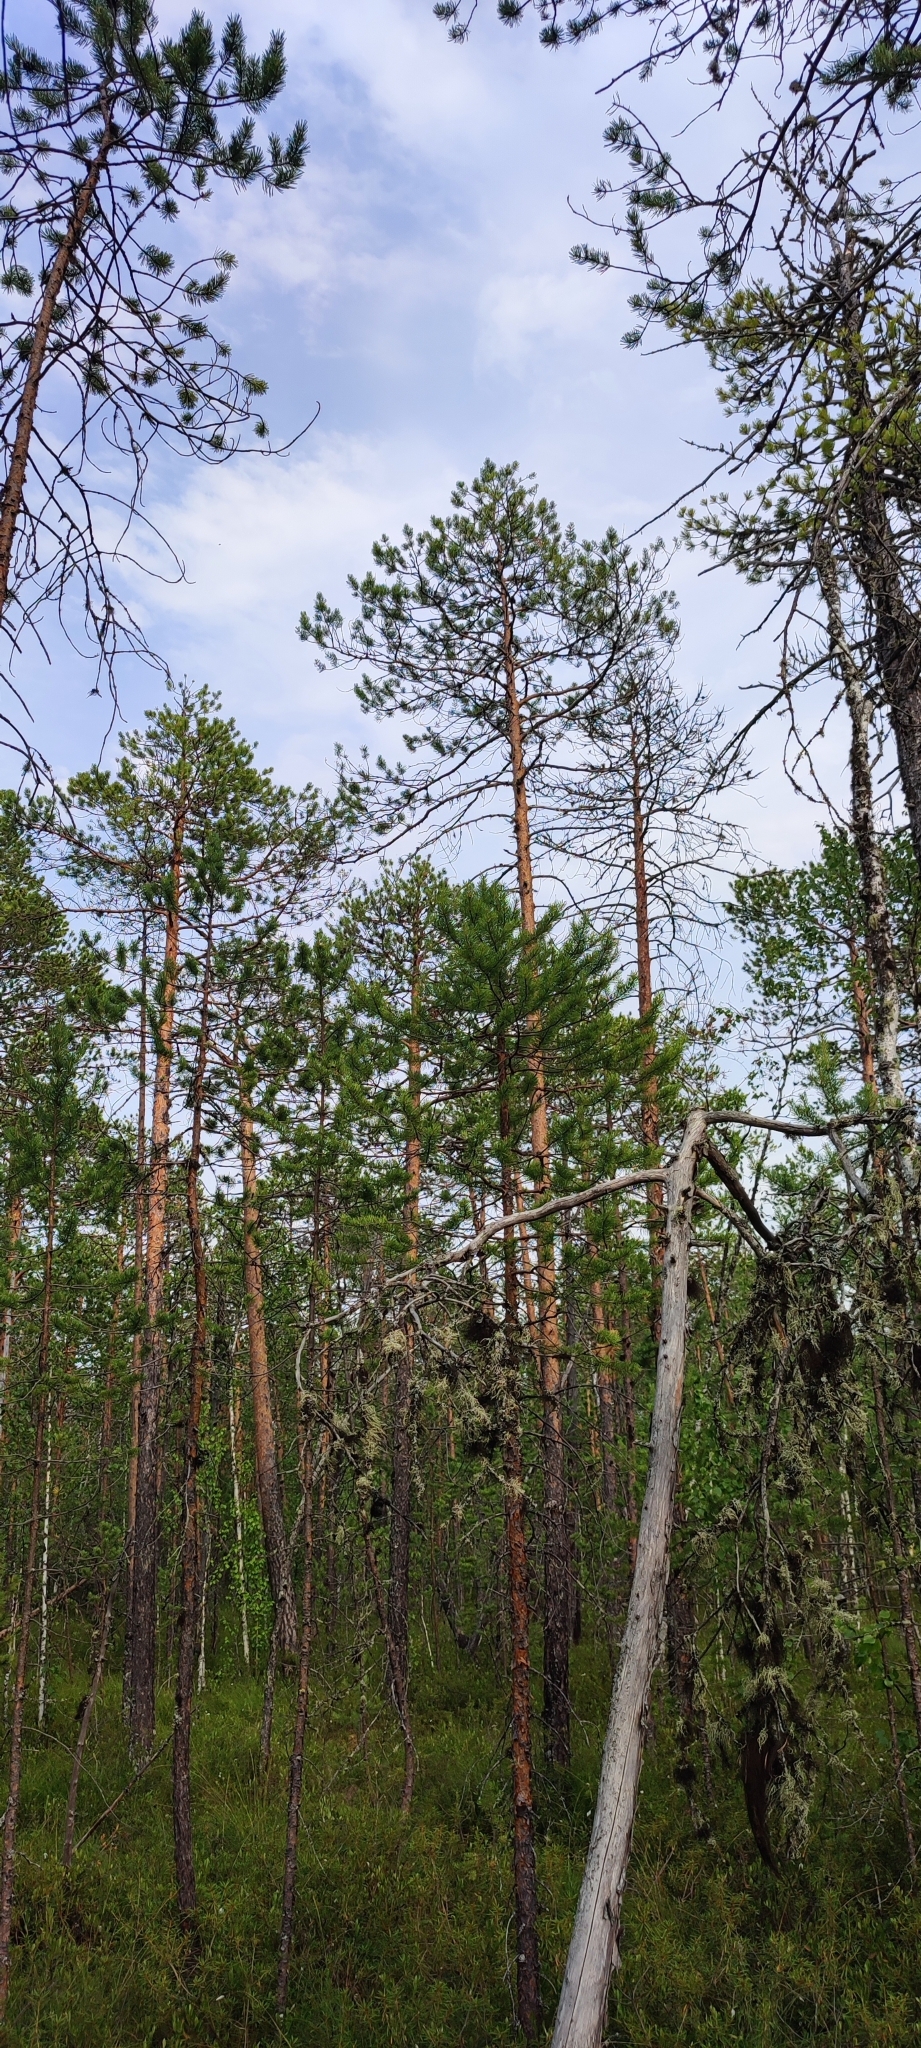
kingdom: Plantae
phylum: Tracheophyta
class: Pinopsida
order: Pinales
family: Pinaceae
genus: Pinus
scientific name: Pinus sylvestris
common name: Scots pine
